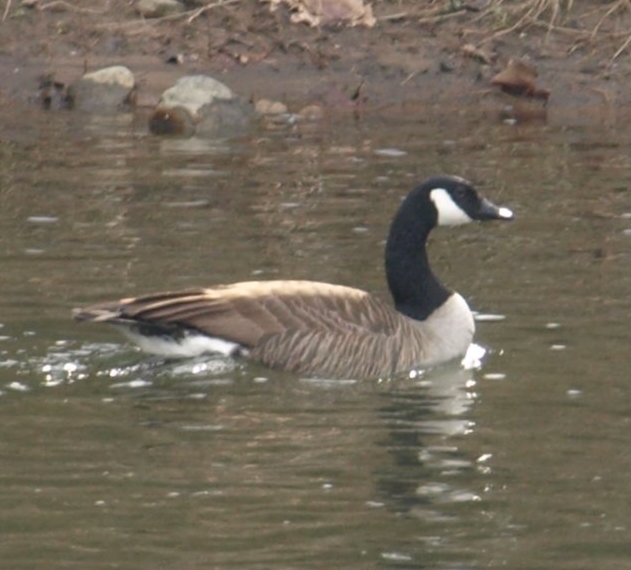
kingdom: Animalia
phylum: Chordata
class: Aves
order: Anseriformes
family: Anatidae
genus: Branta
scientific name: Branta canadensis
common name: Canada goose
